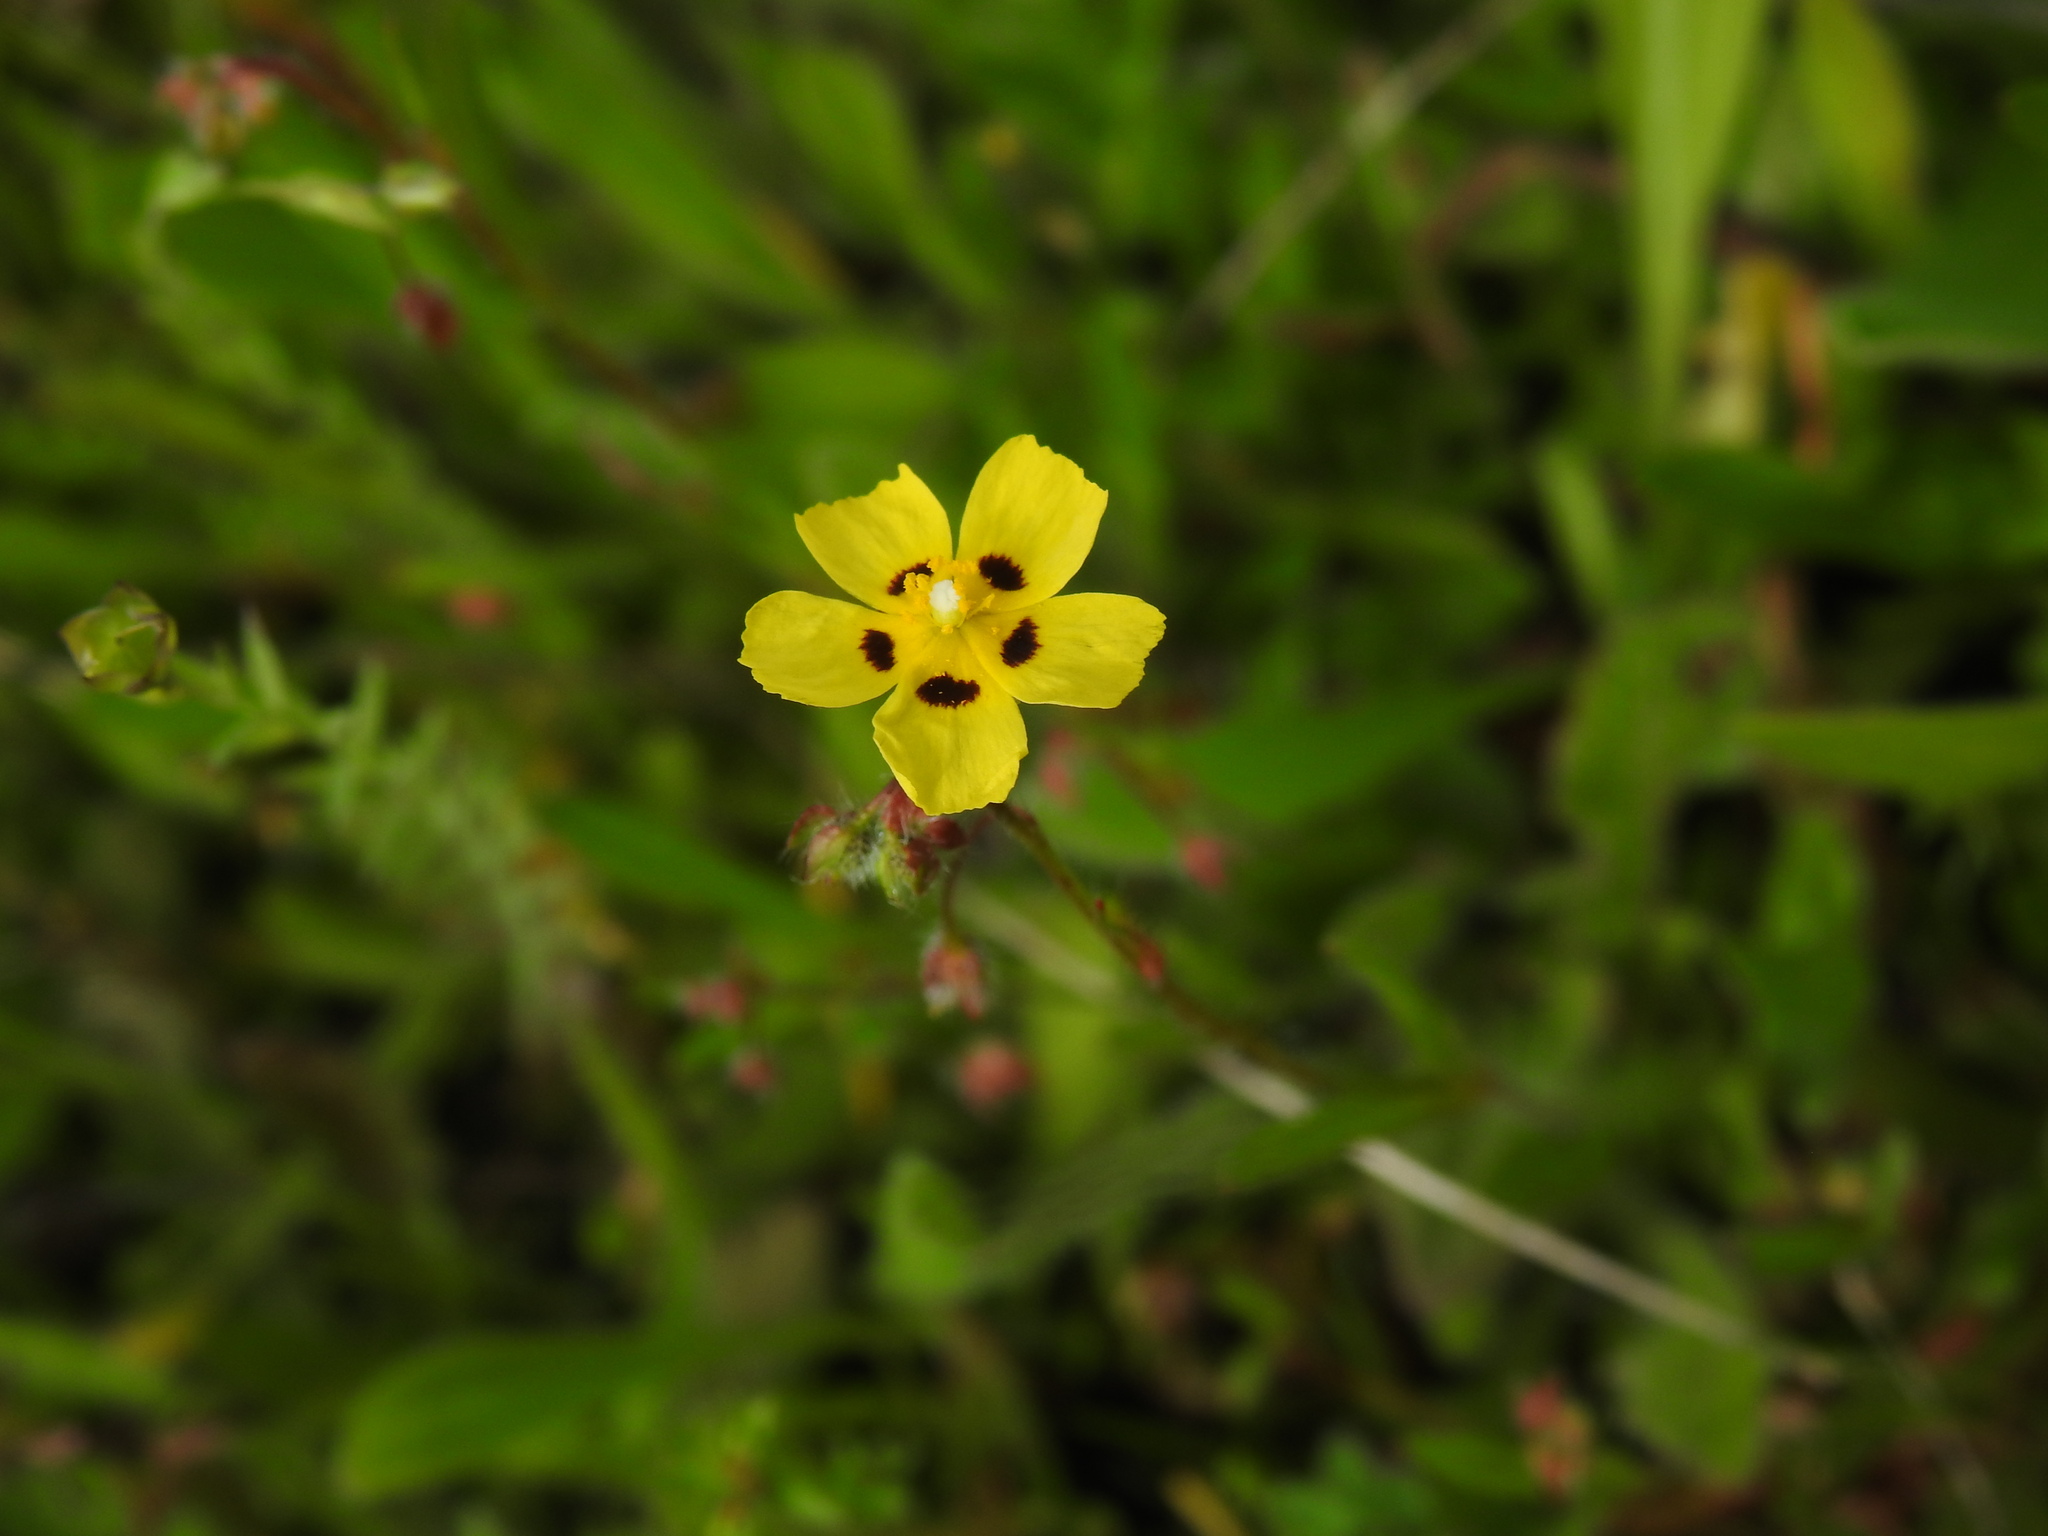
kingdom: Plantae
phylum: Tracheophyta
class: Magnoliopsida
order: Malvales
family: Cistaceae
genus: Tuberaria
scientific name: Tuberaria guttata
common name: Spotted rock-rose
